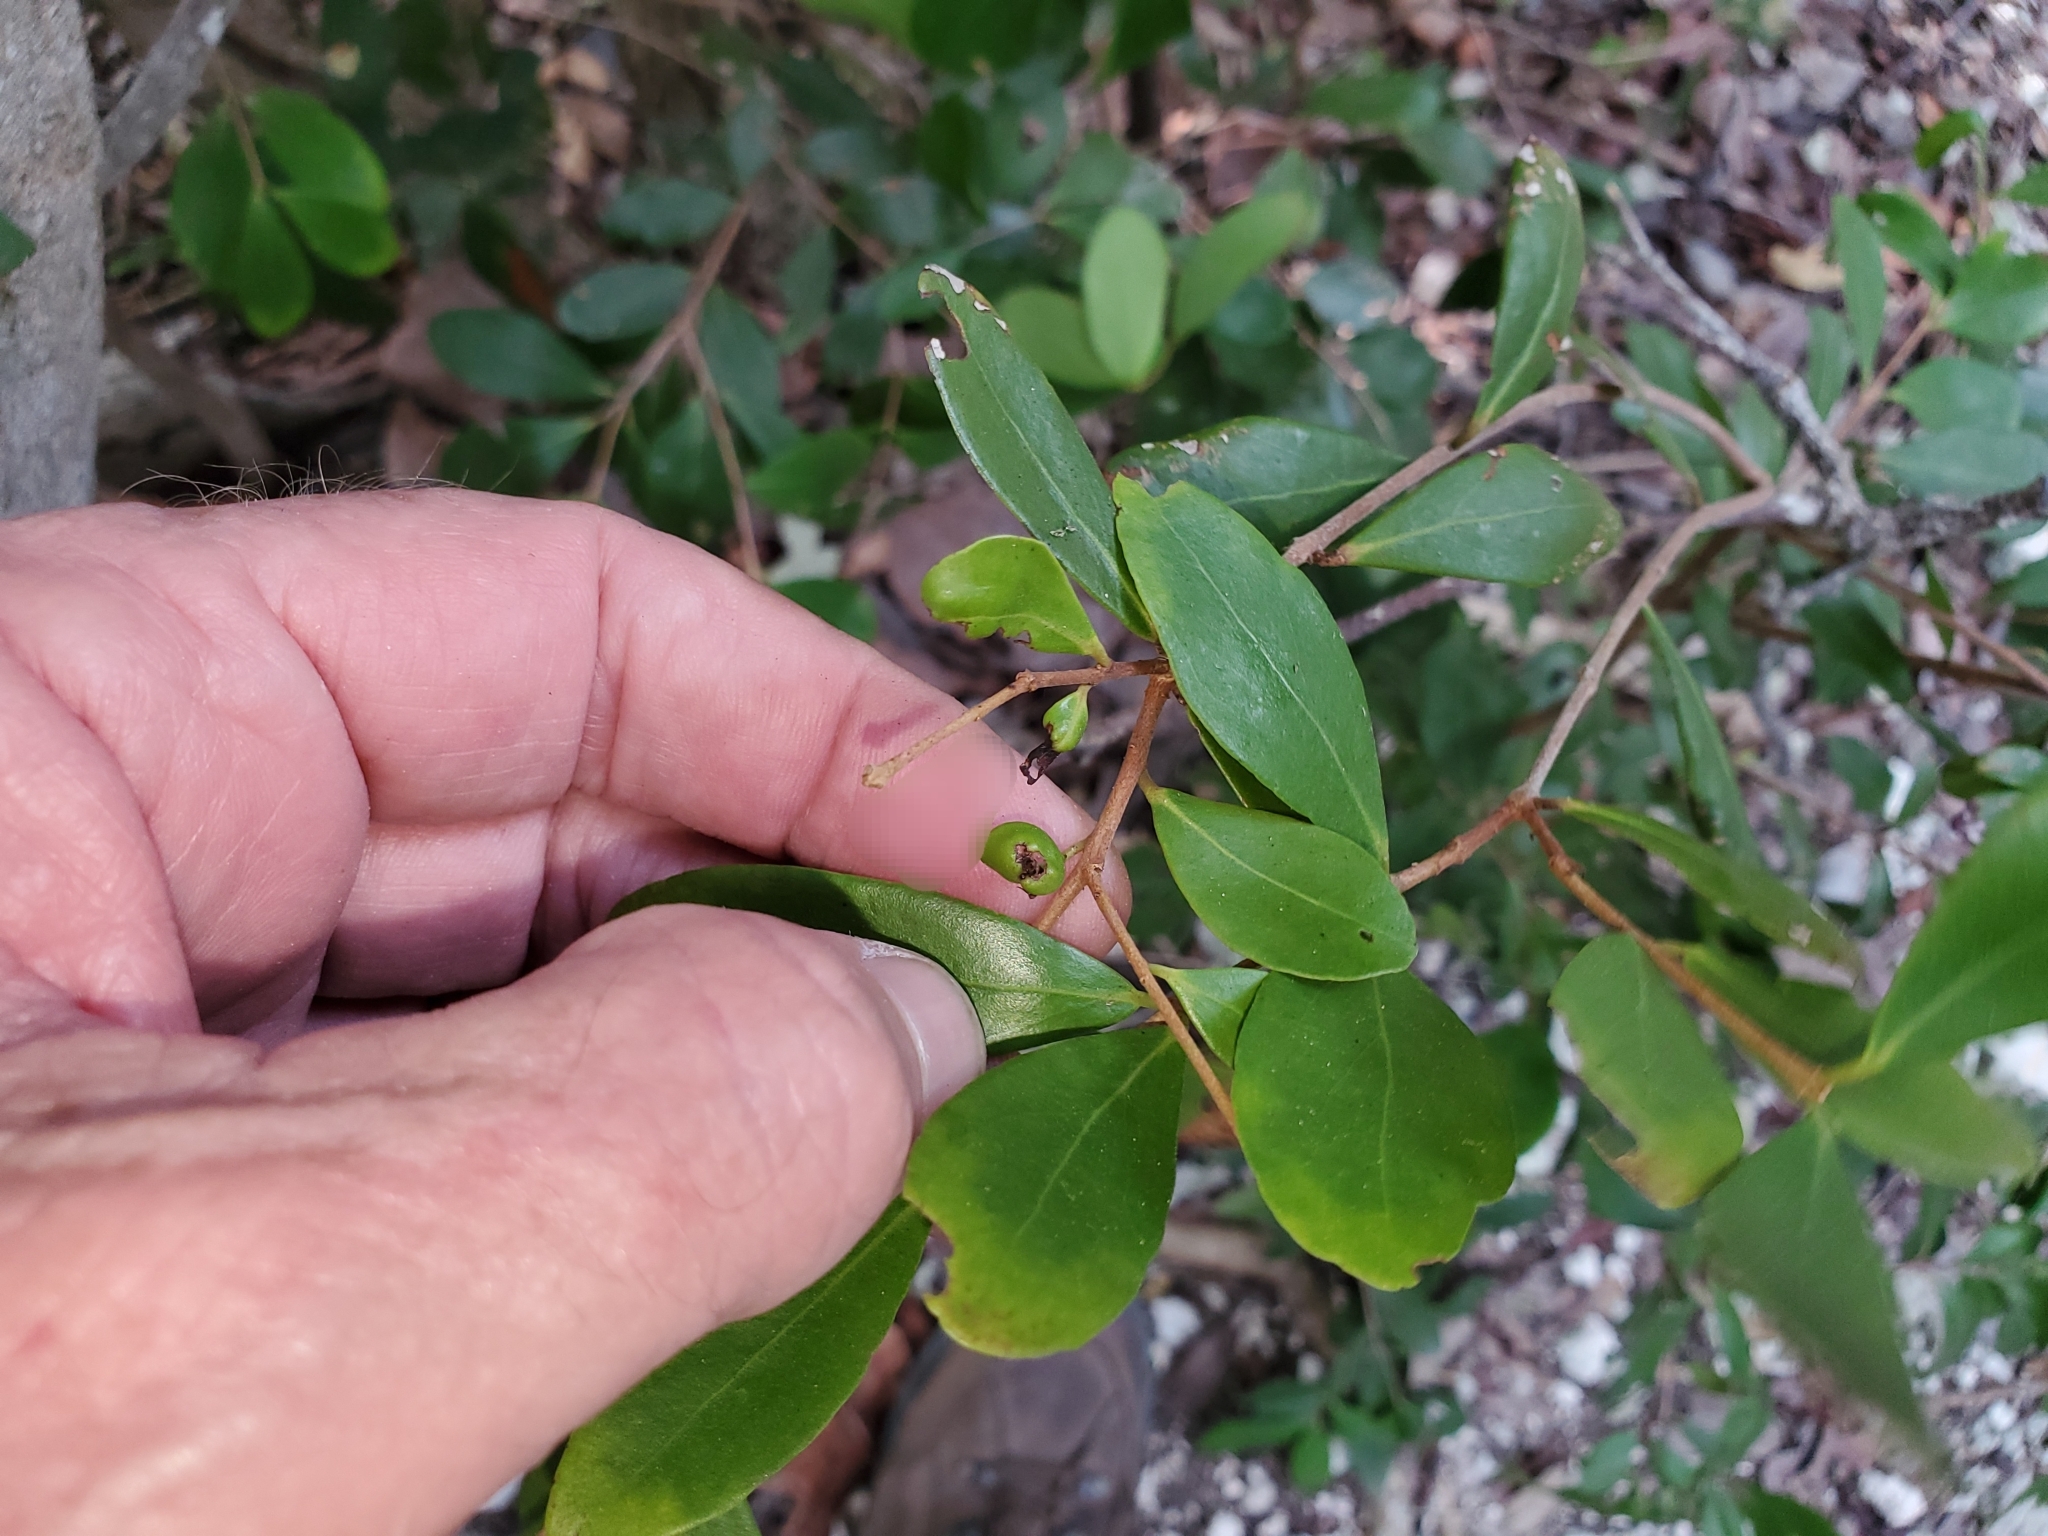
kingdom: Plantae
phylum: Tracheophyta
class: Magnoliopsida
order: Myrtales
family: Myrtaceae
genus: Eugenia
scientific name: Eugenia foetida
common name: White wattling
